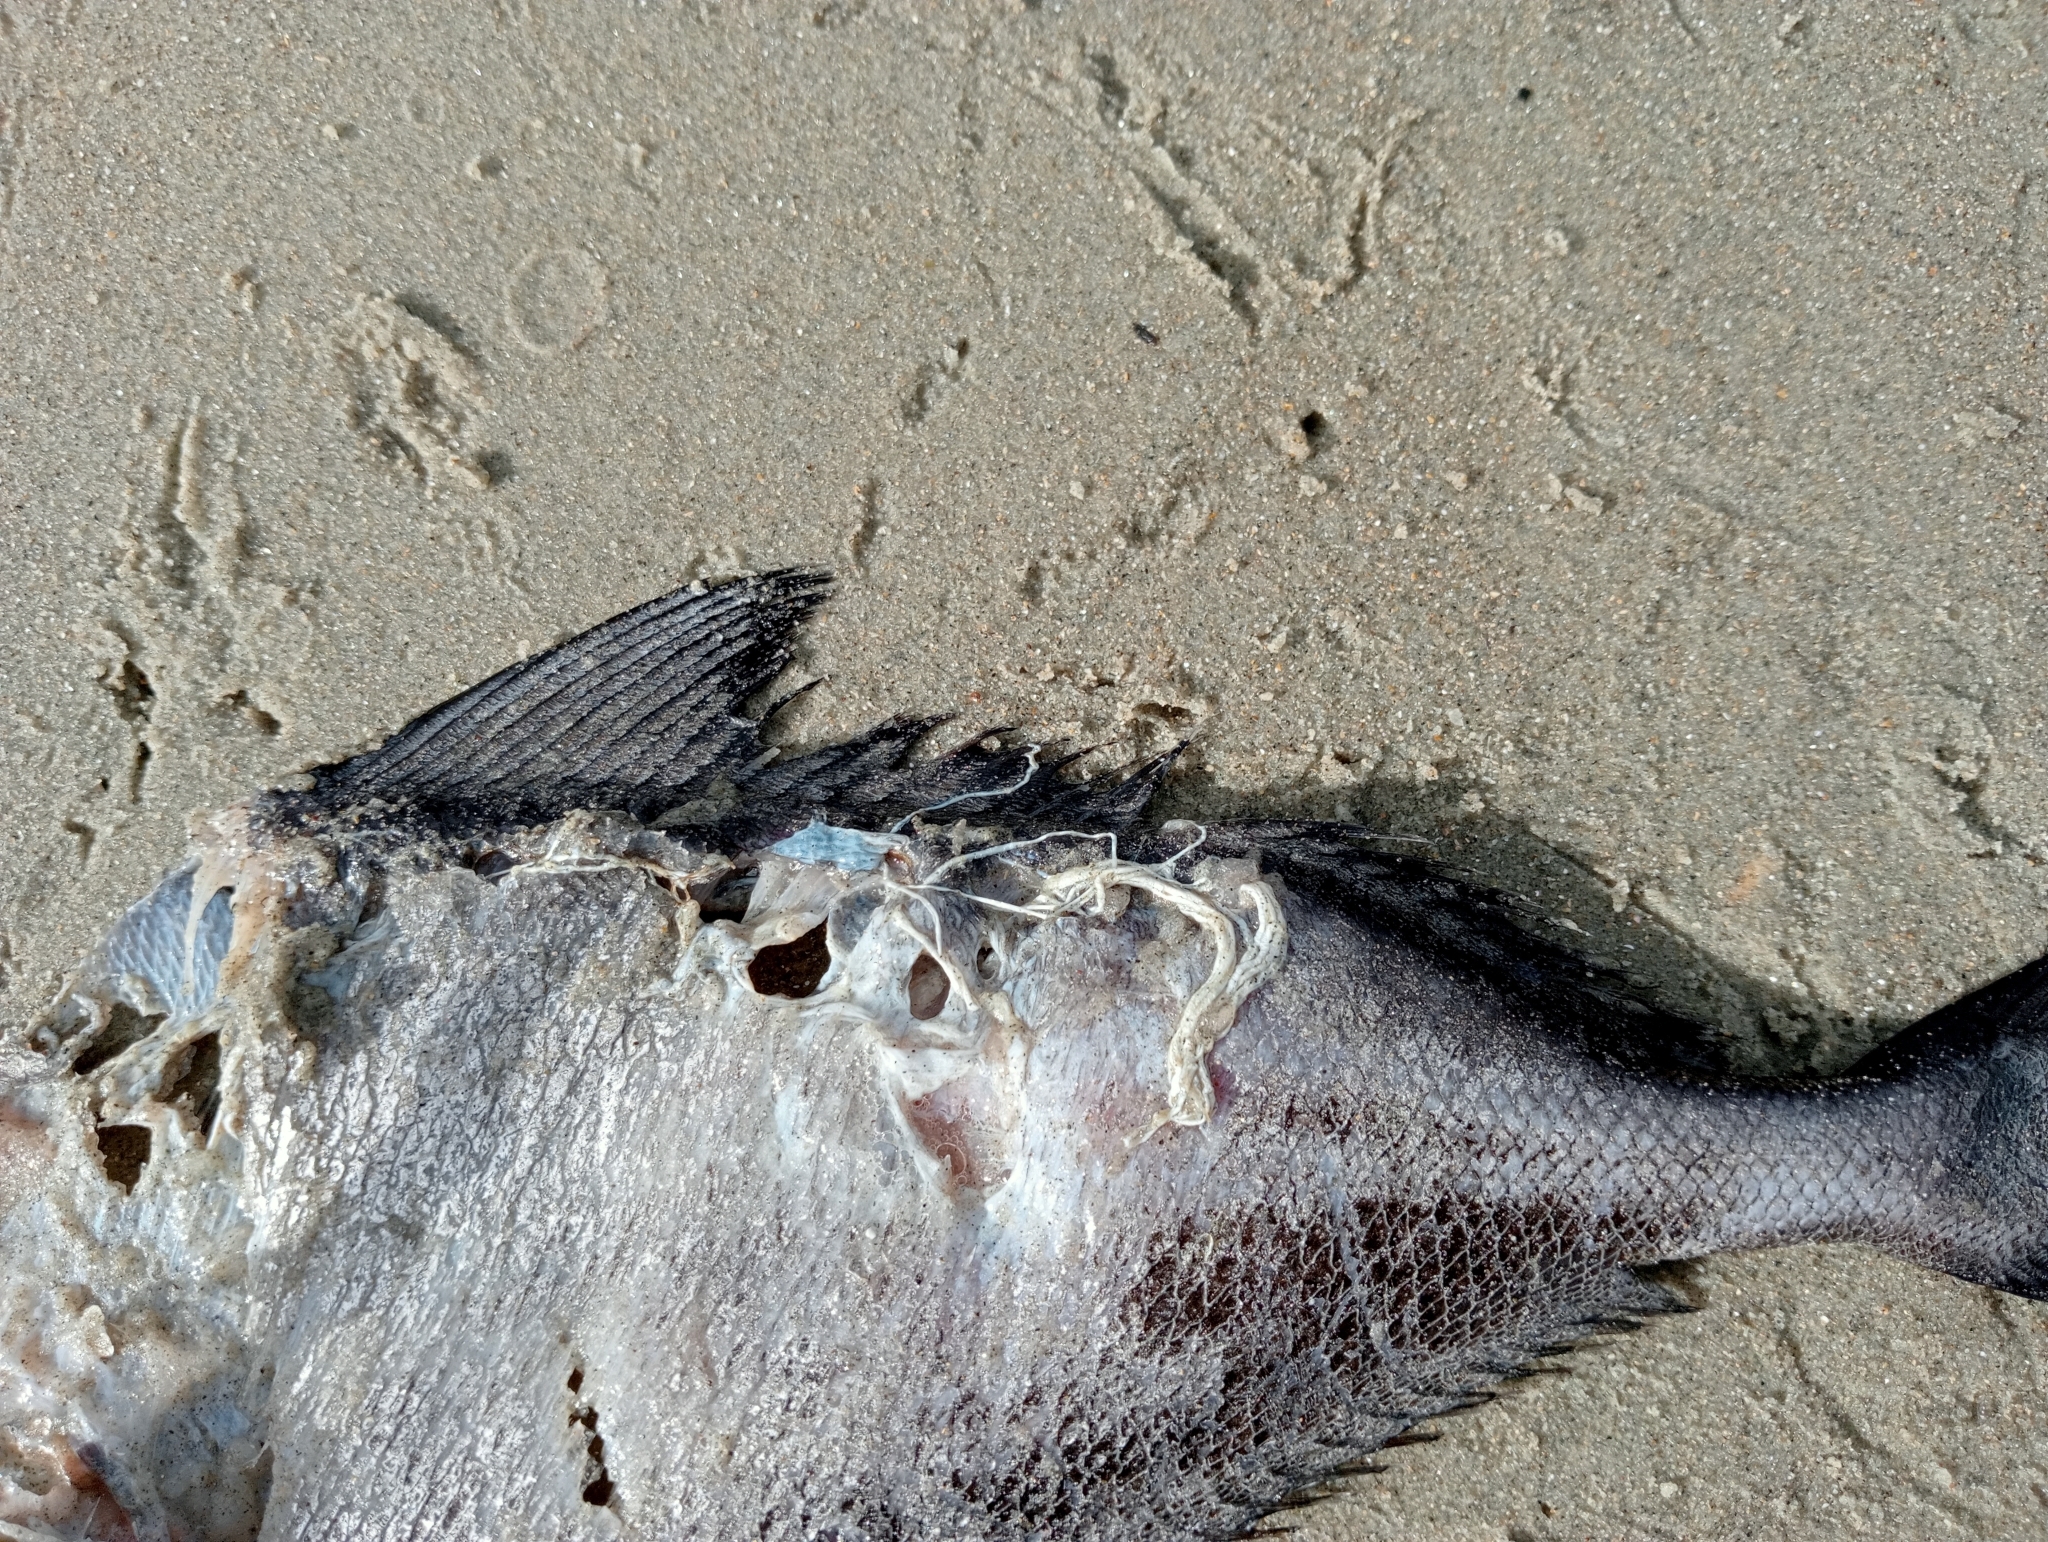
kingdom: Animalia
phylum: Chordata
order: Perciformes
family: Bramidae
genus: Brama
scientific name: Brama australis
